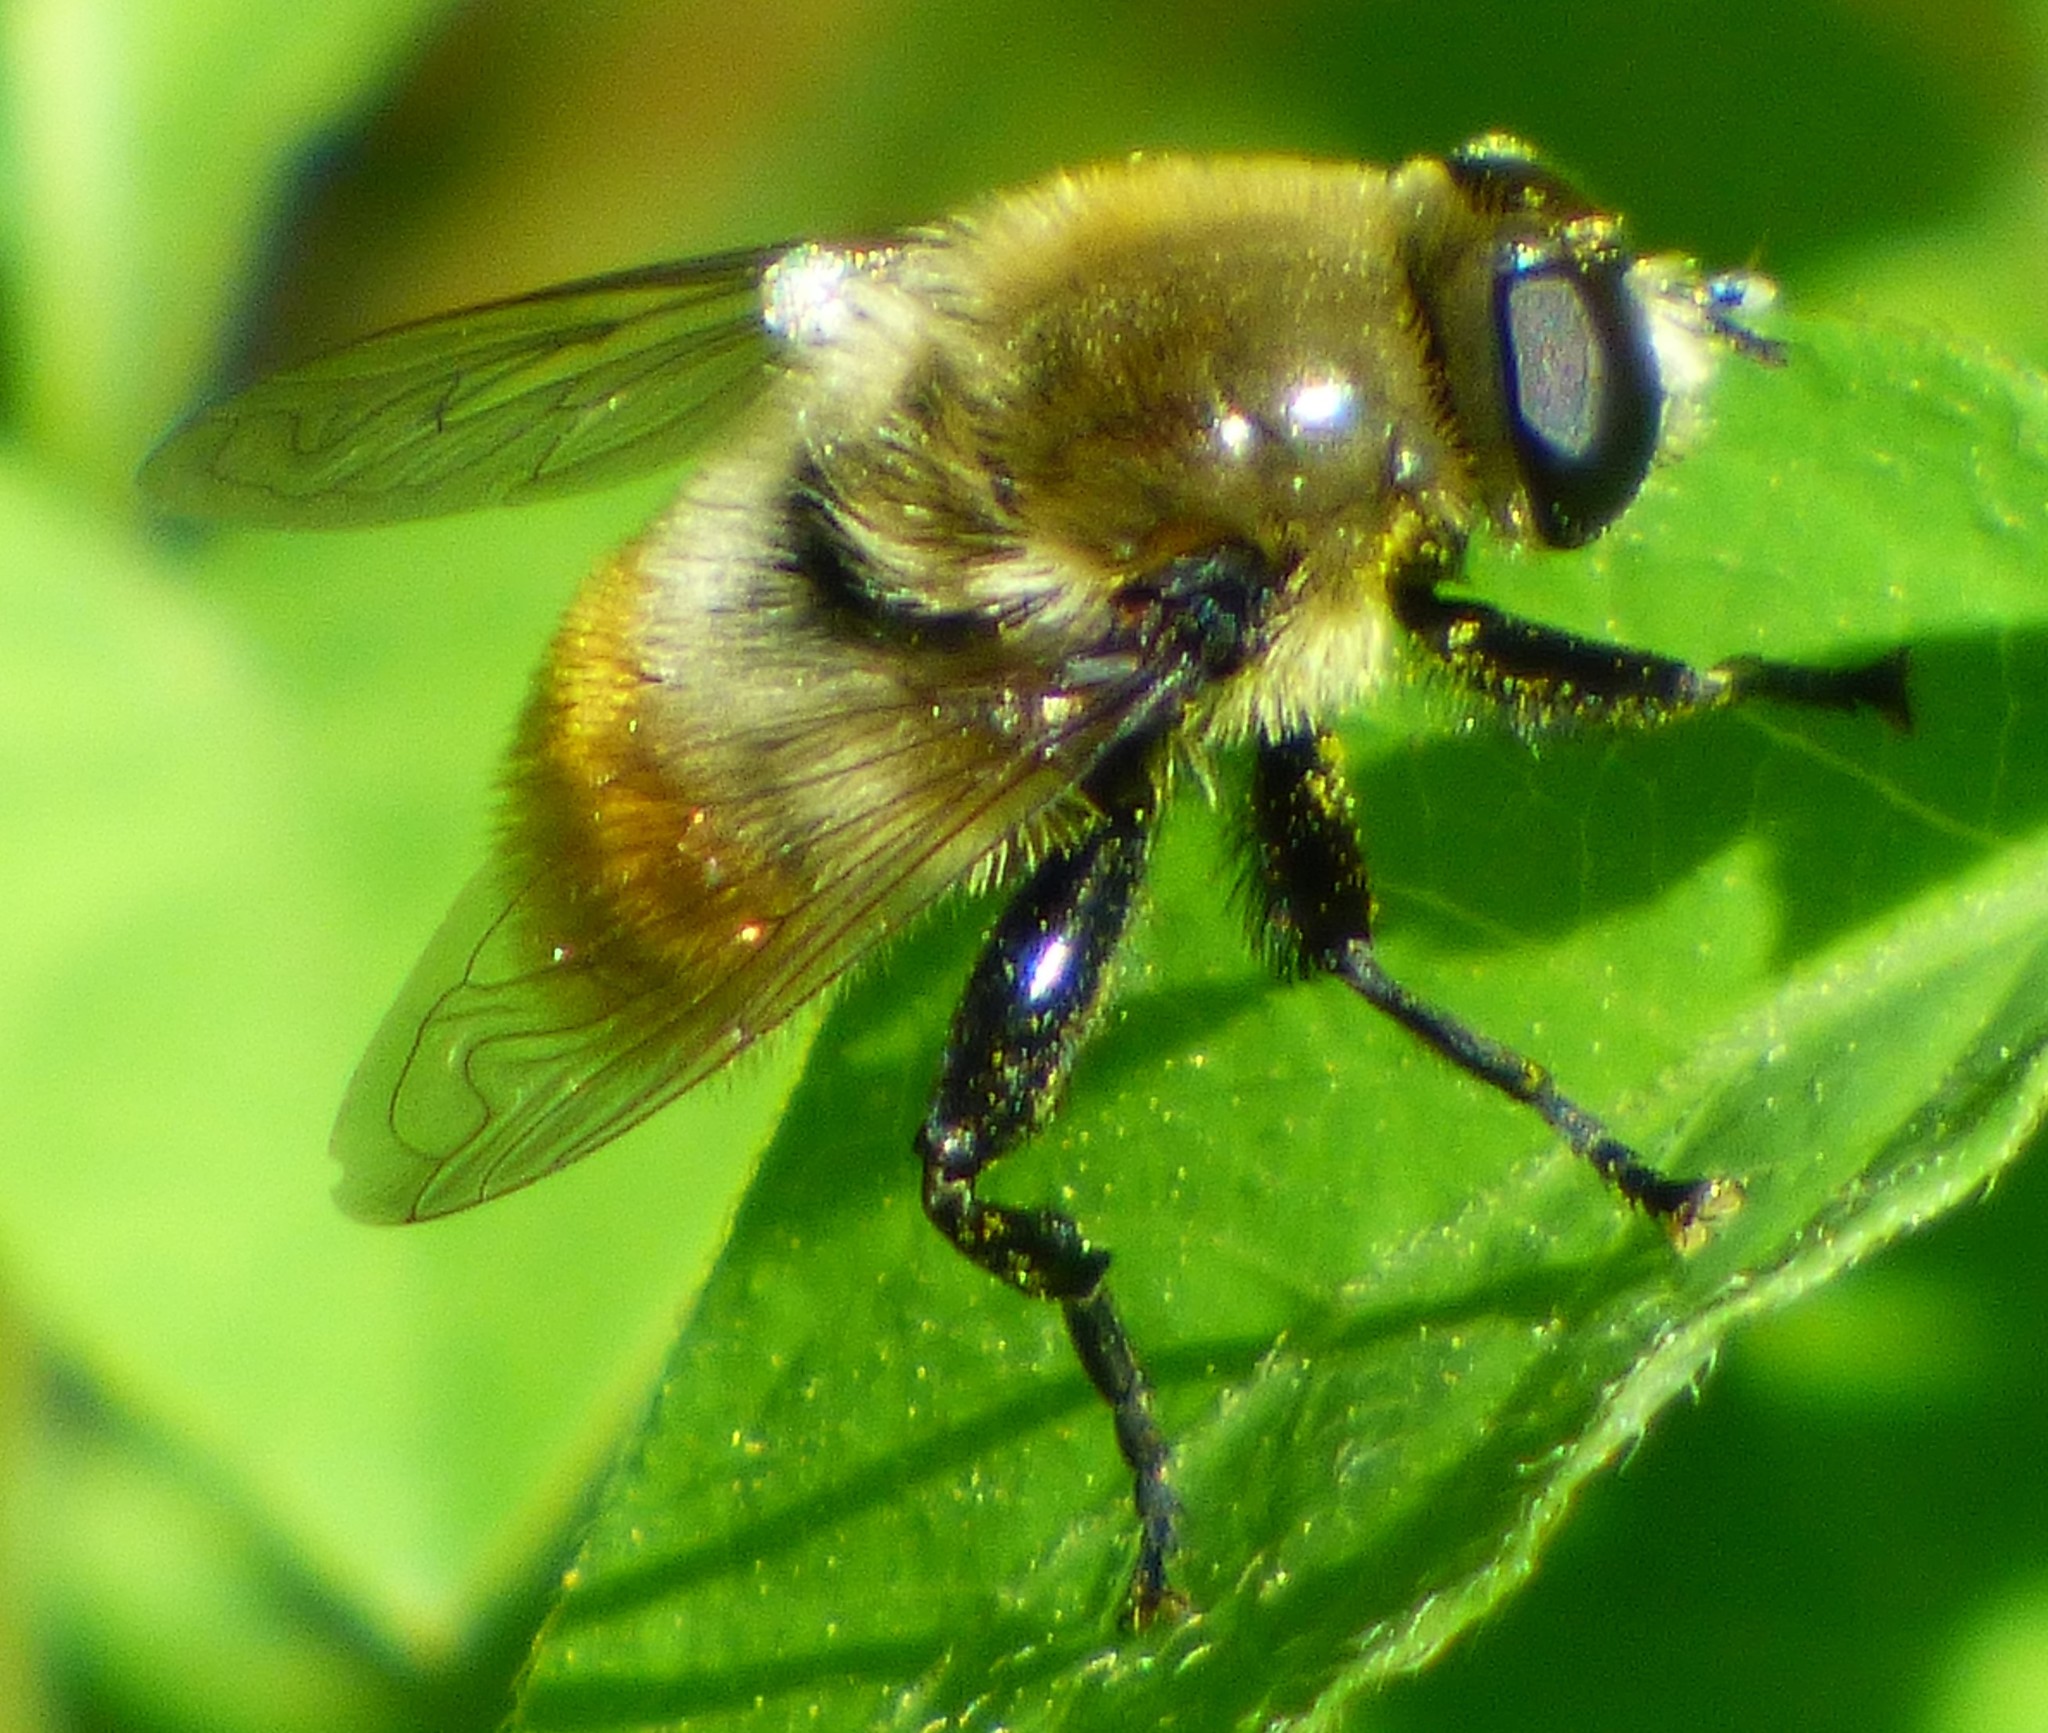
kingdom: Animalia
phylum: Arthropoda
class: Insecta
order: Diptera
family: Syrphidae
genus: Merodon
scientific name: Merodon equestris
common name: Greater bulb-fly
